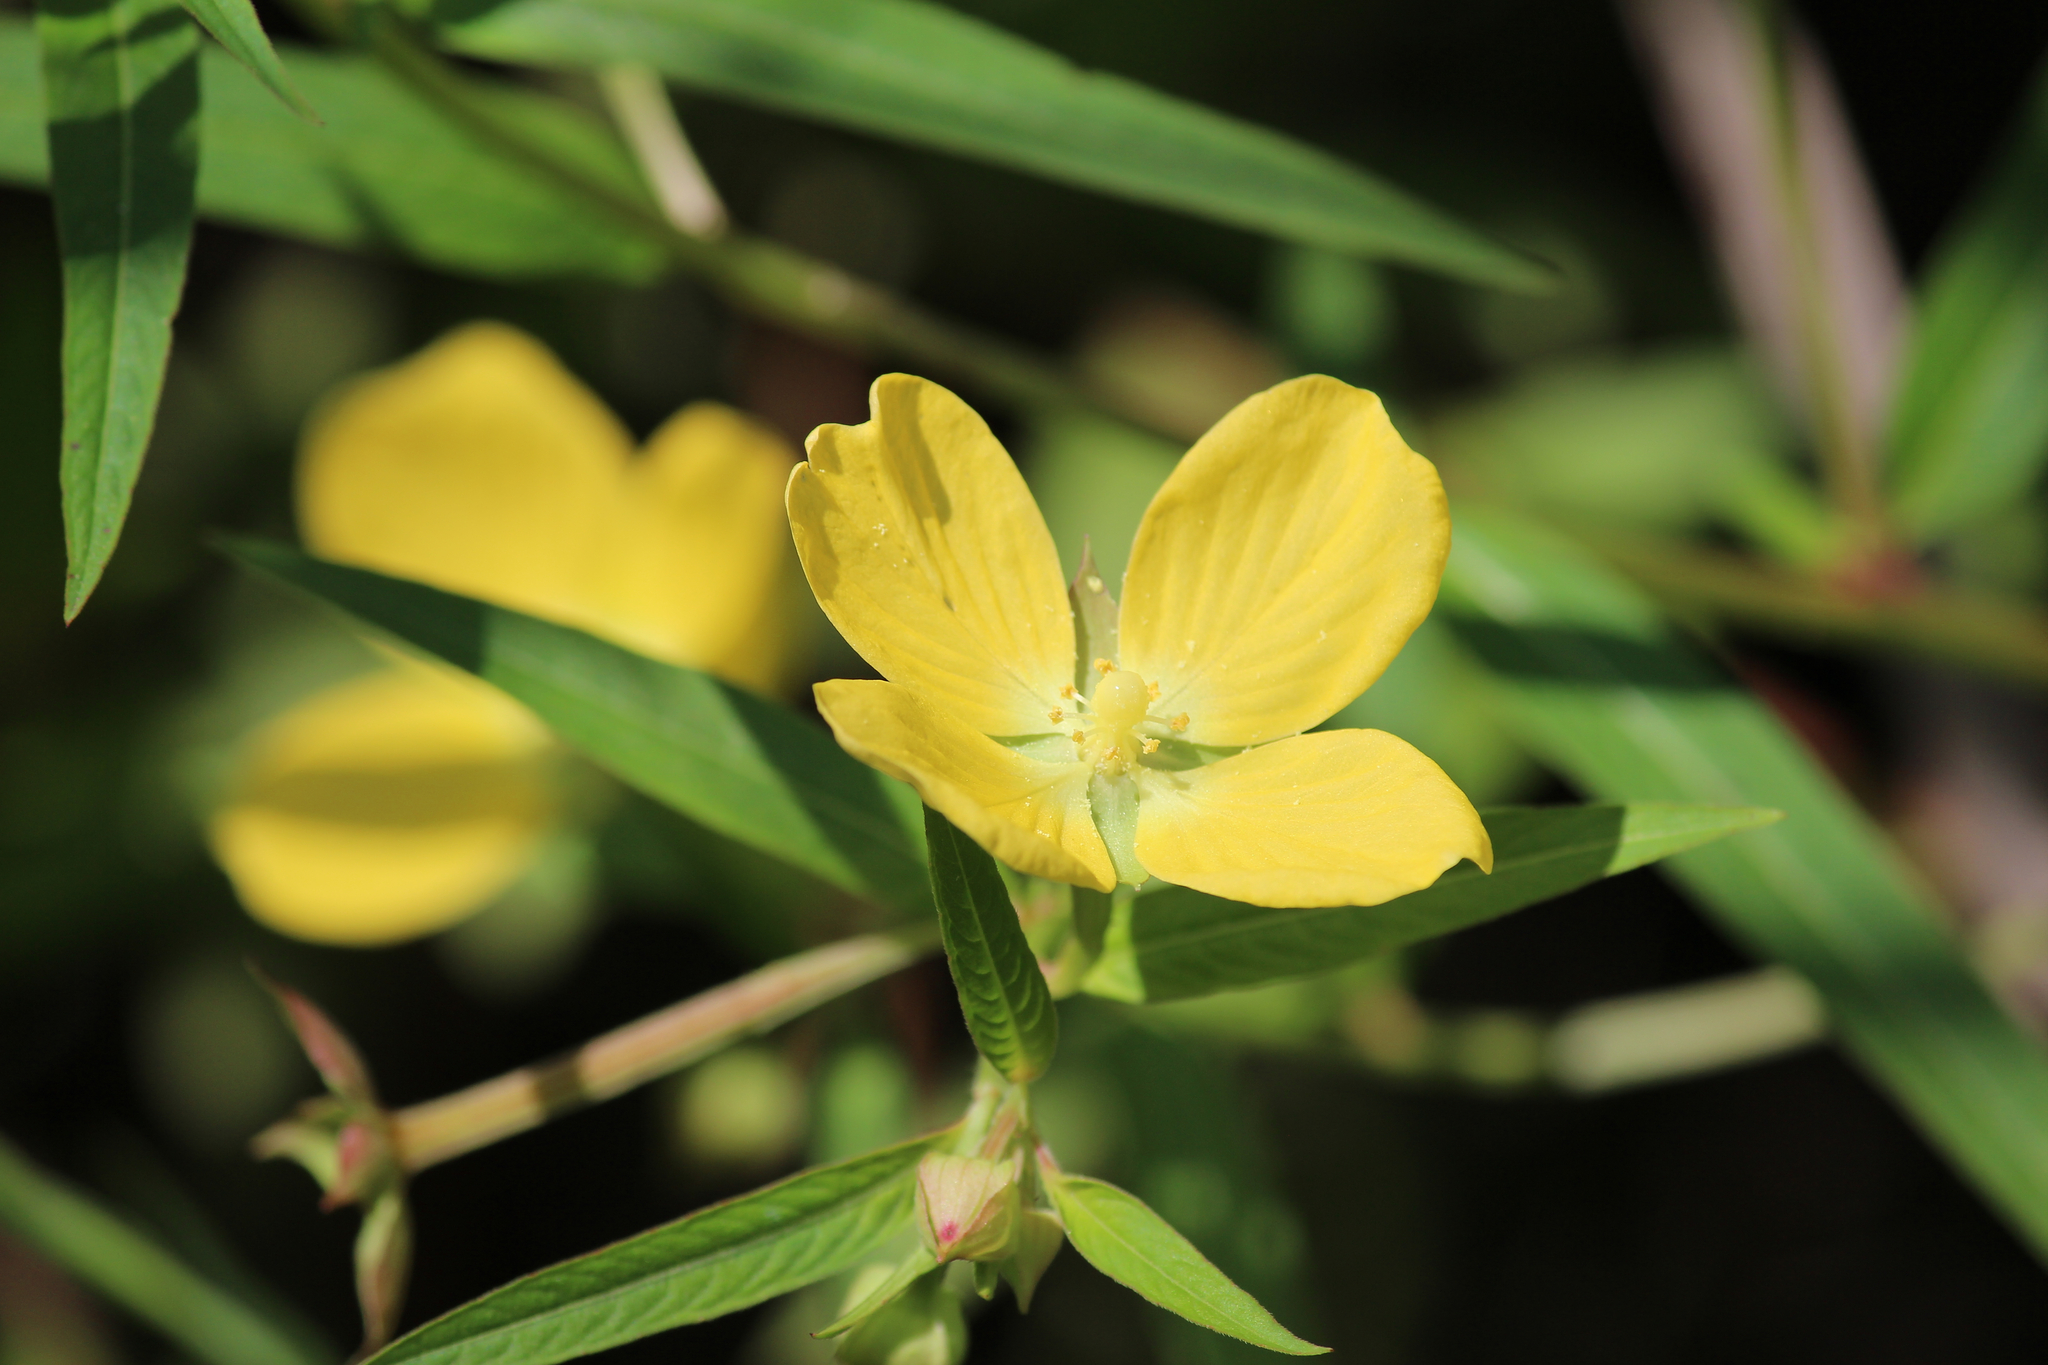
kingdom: Plantae
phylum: Tracheophyta
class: Magnoliopsida
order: Myrtales
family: Onagraceae
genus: Ludwigia
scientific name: Ludwigia octovalvis
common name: Water-primrose
